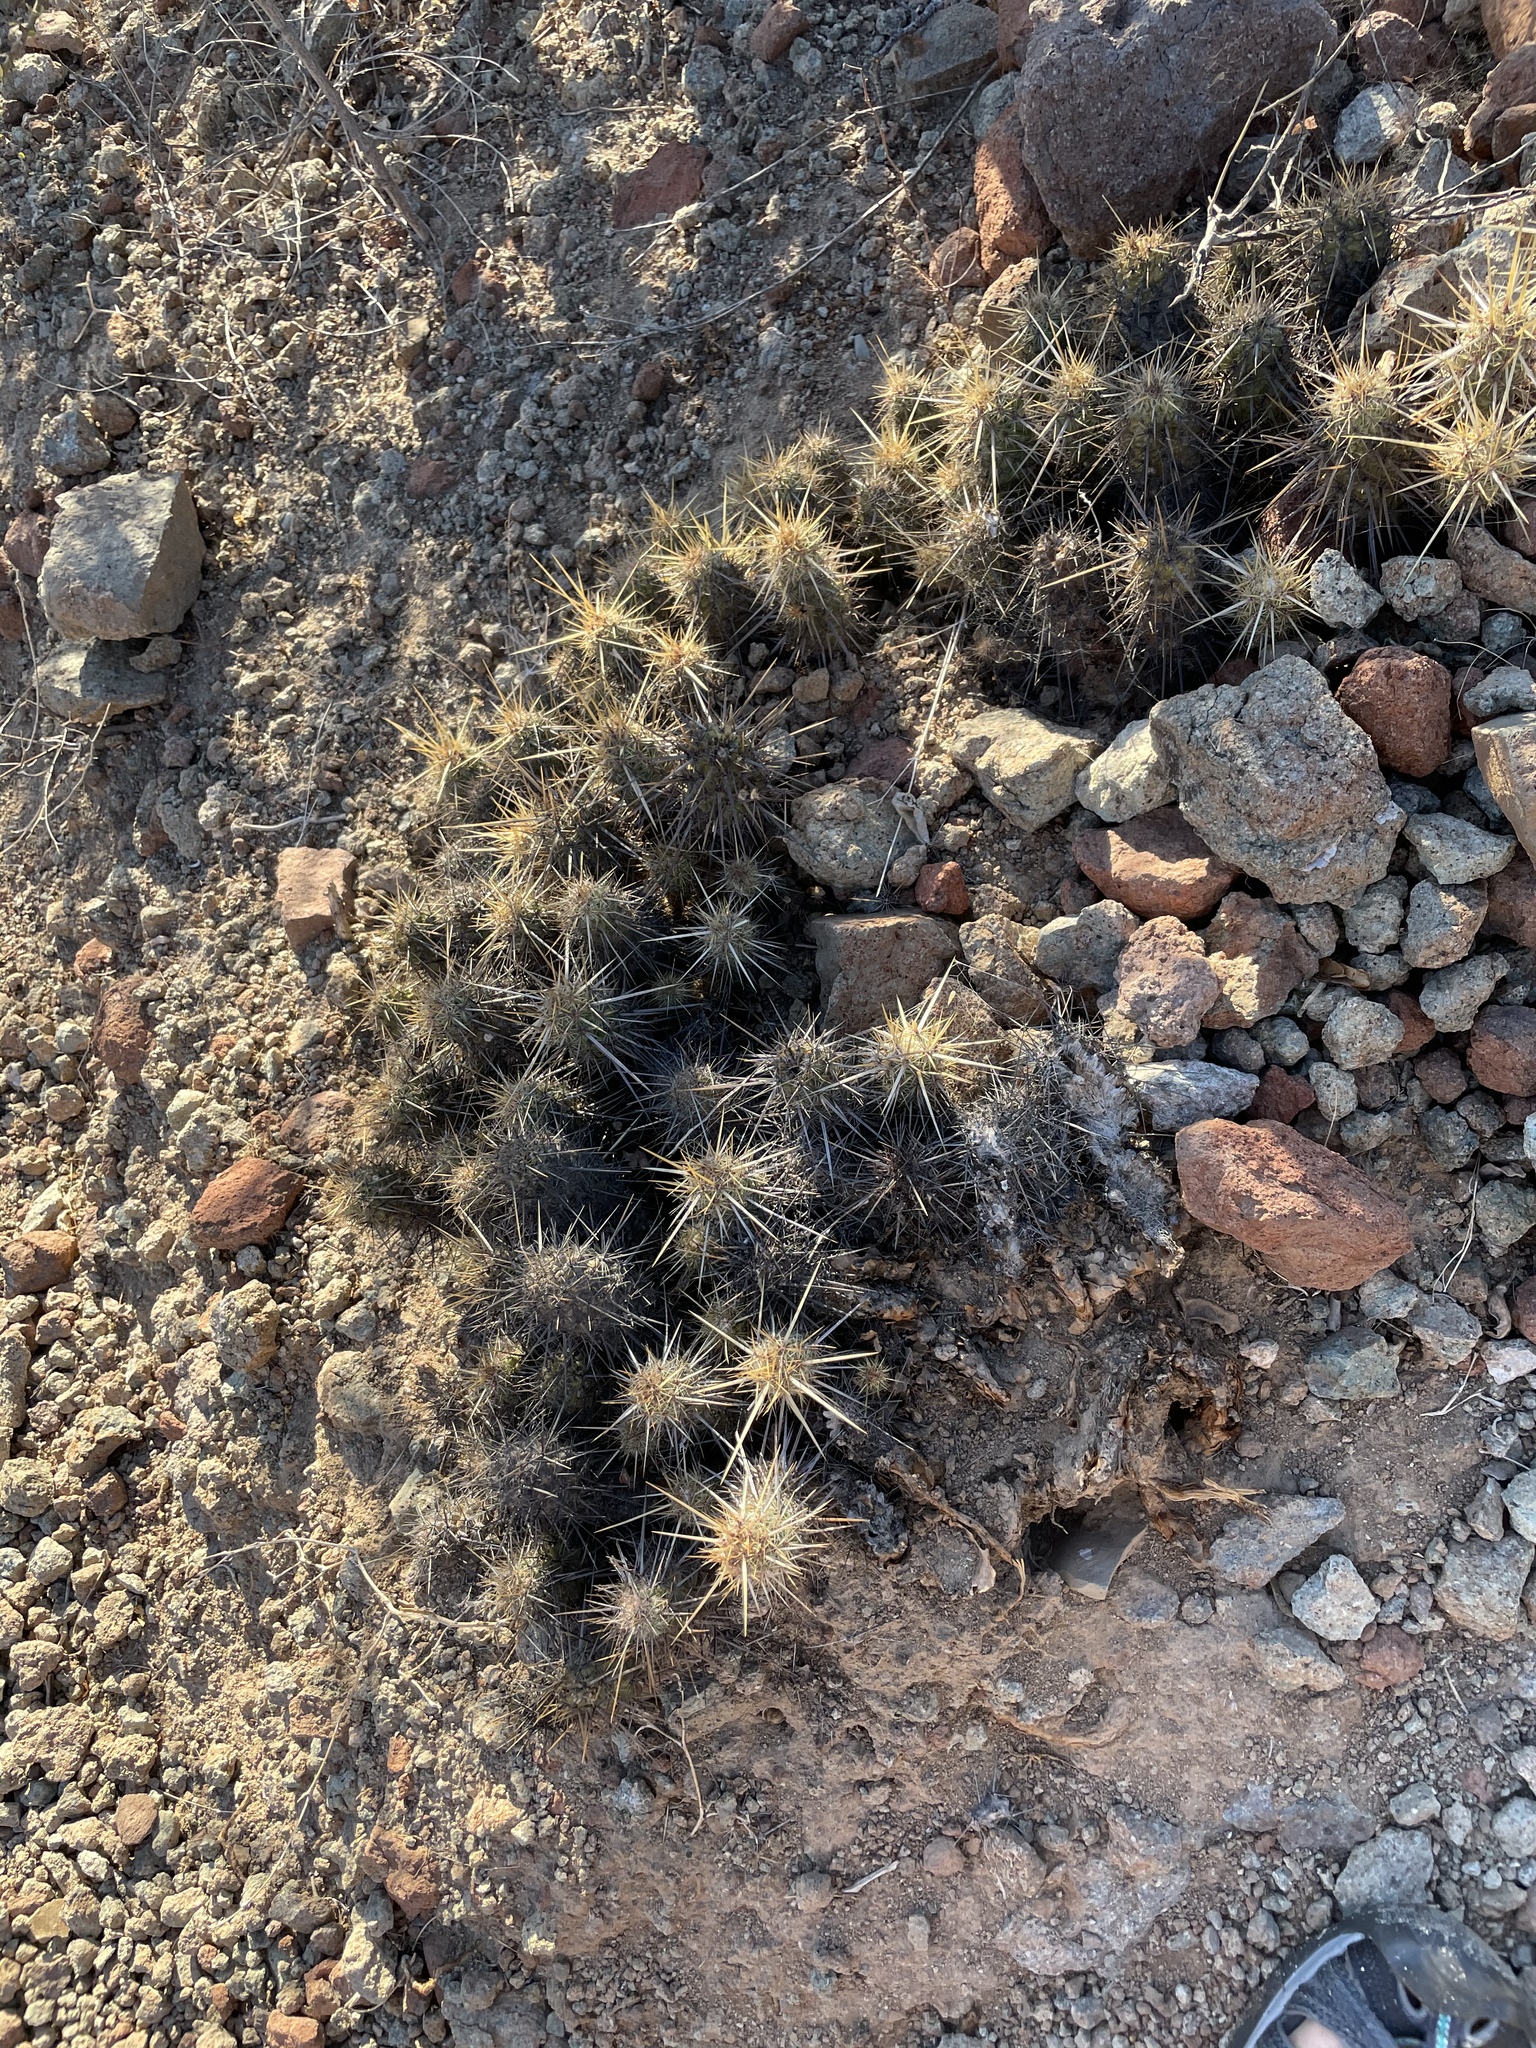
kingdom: Plantae
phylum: Tracheophyta
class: Magnoliopsida
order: Caryophyllales
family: Cactaceae
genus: Echinocereus
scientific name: Echinocereus brandegeei
